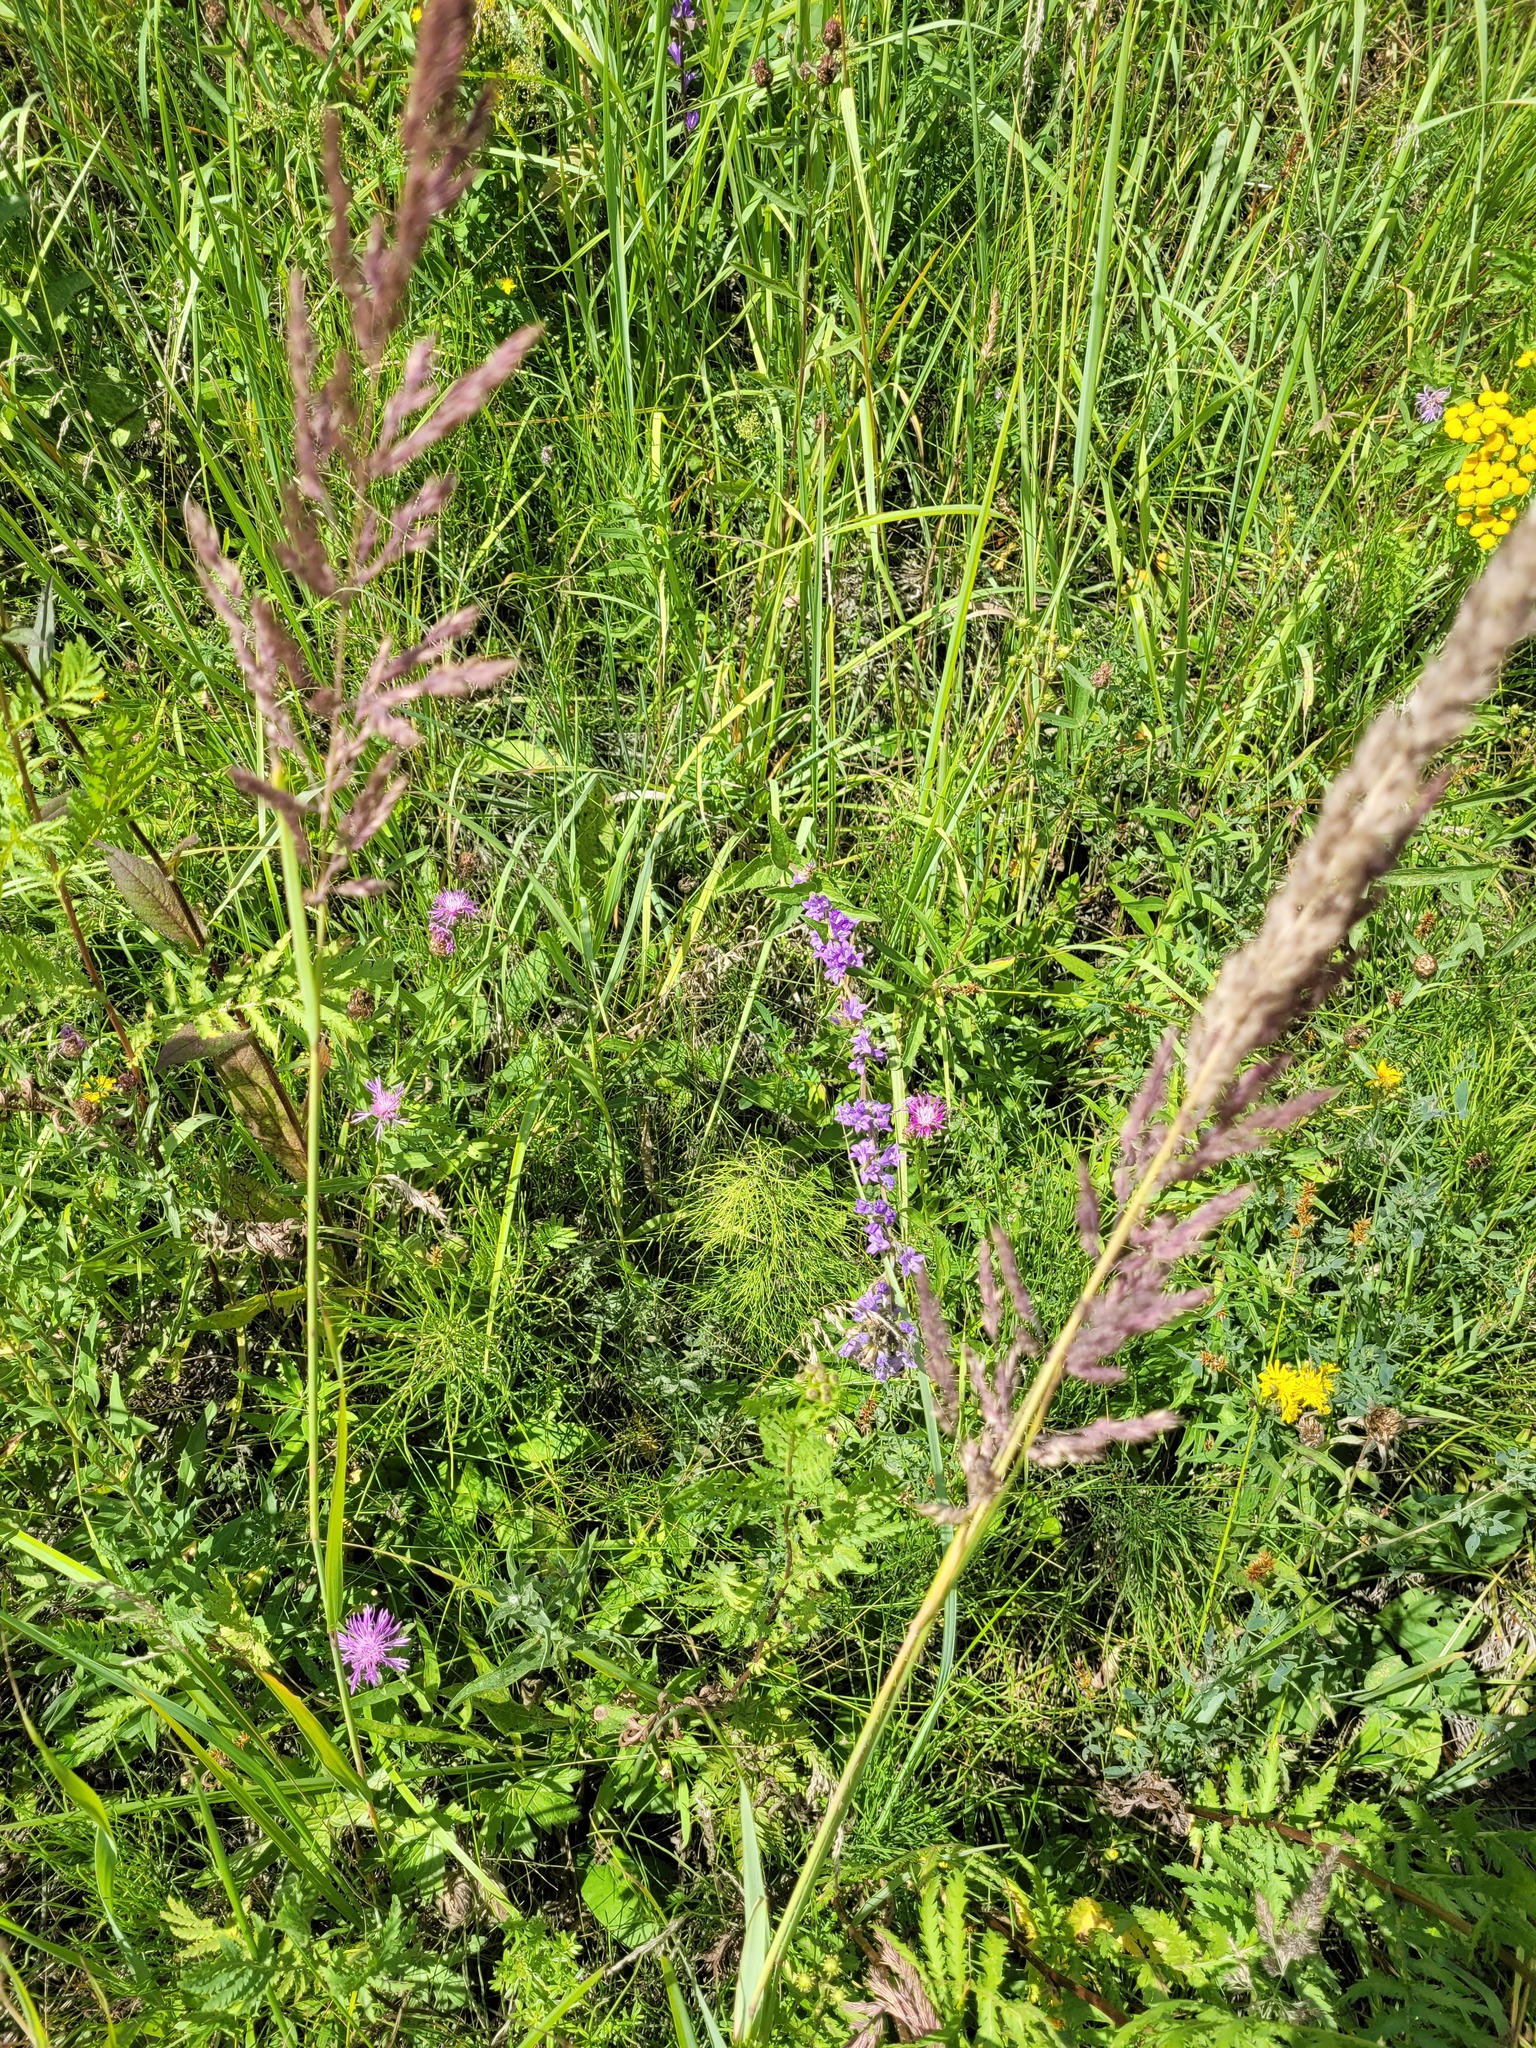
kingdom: Plantae
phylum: Tracheophyta
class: Magnoliopsida
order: Asterales
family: Campanulaceae
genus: Campanula
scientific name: Campanula glomerata
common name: Clustered bellflower
